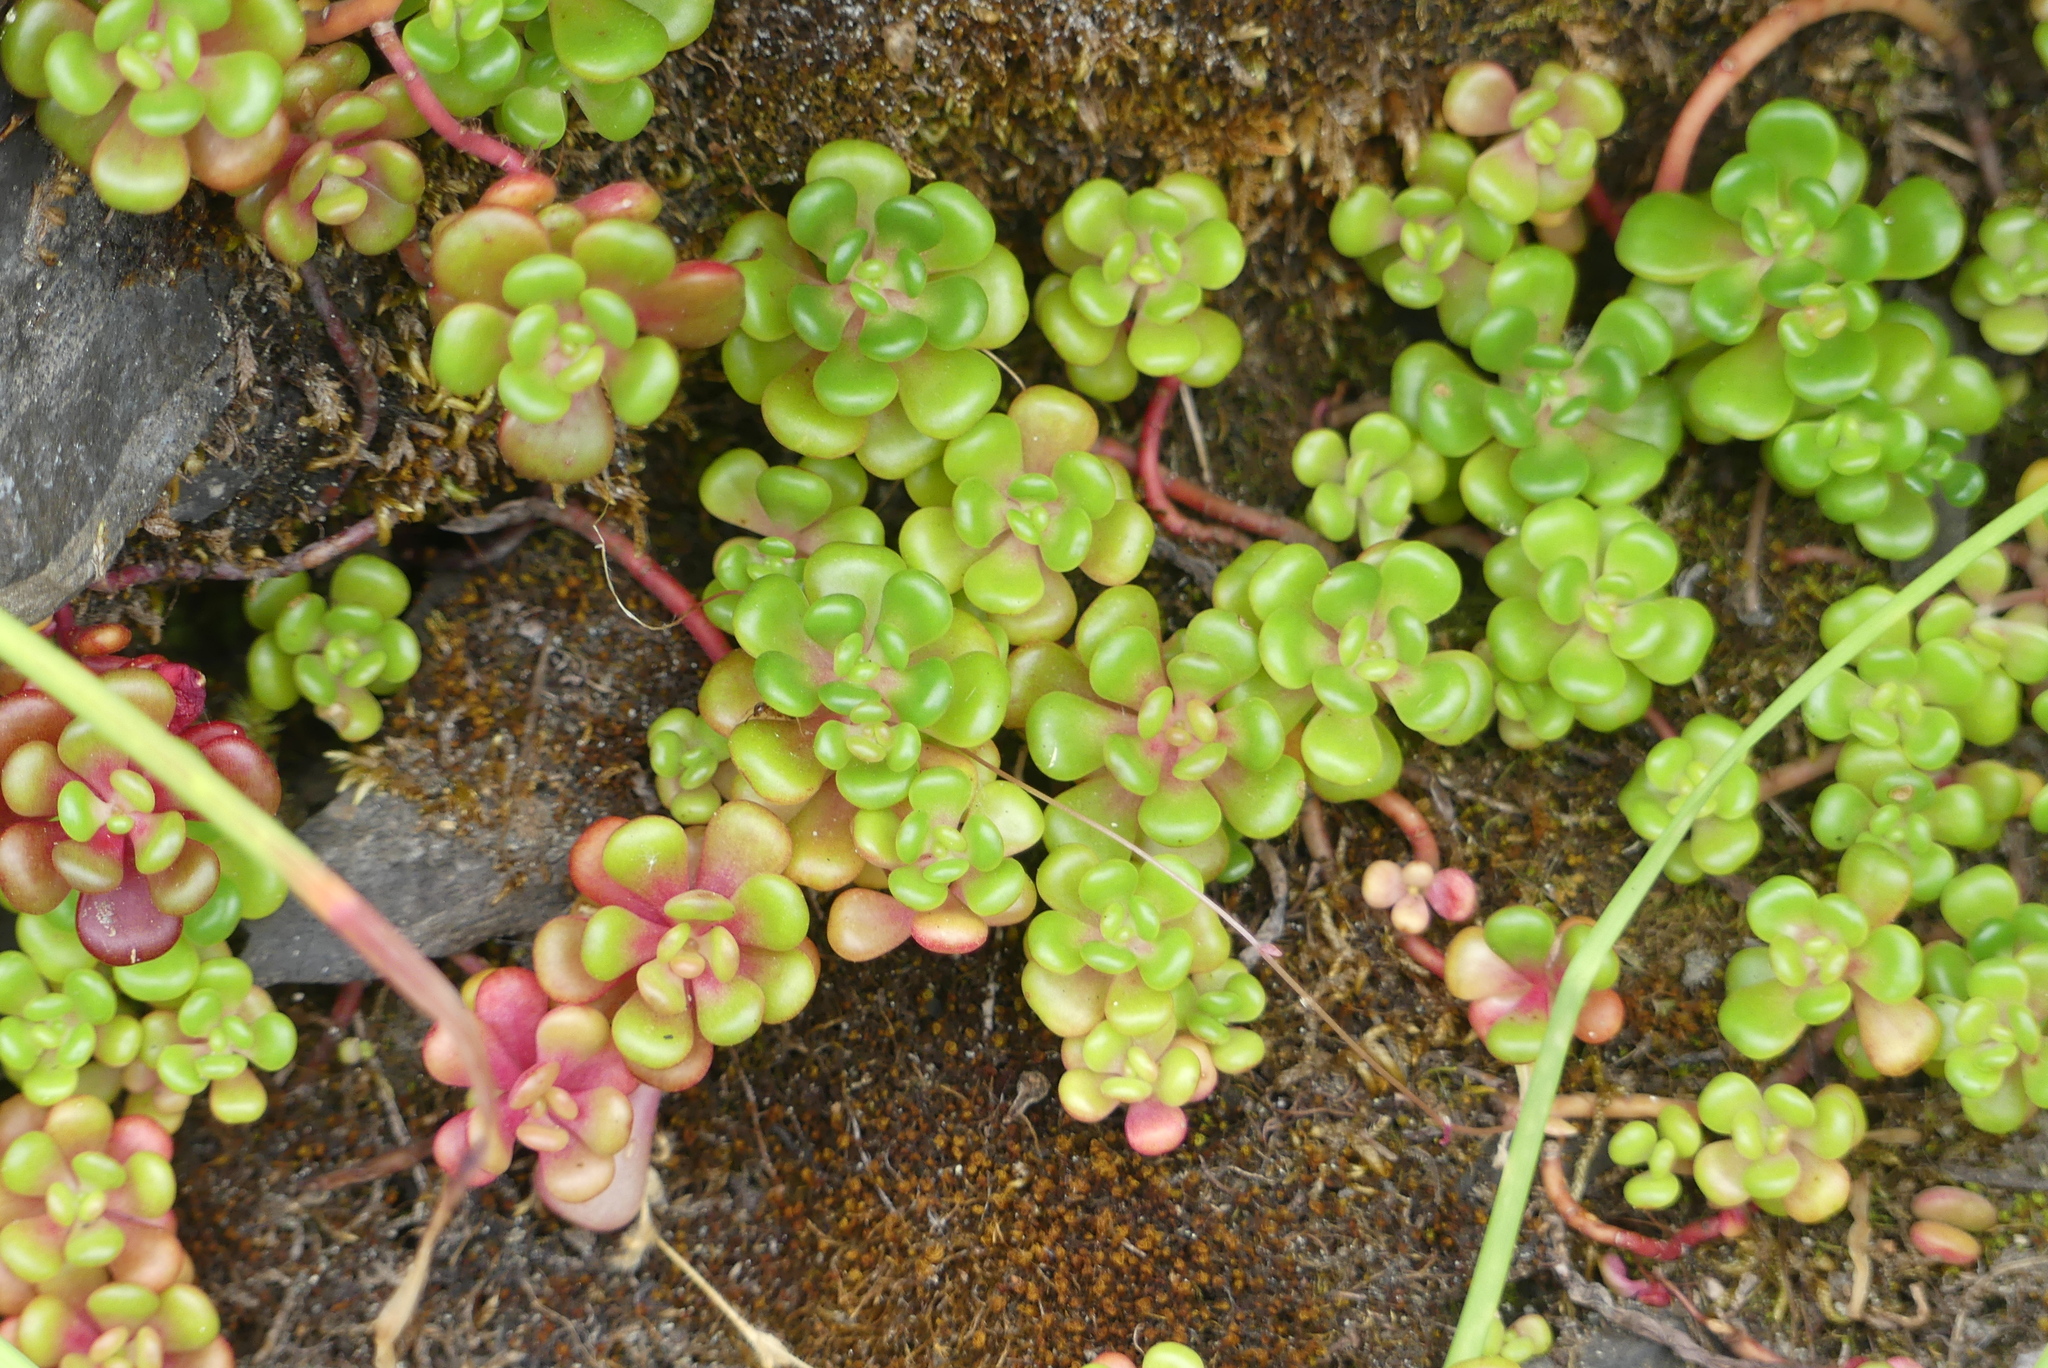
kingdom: Plantae
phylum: Tracheophyta
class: Magnoliopsida
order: Saxifragales
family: Crassulaceae
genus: Sedum
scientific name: Sedum oreganum
